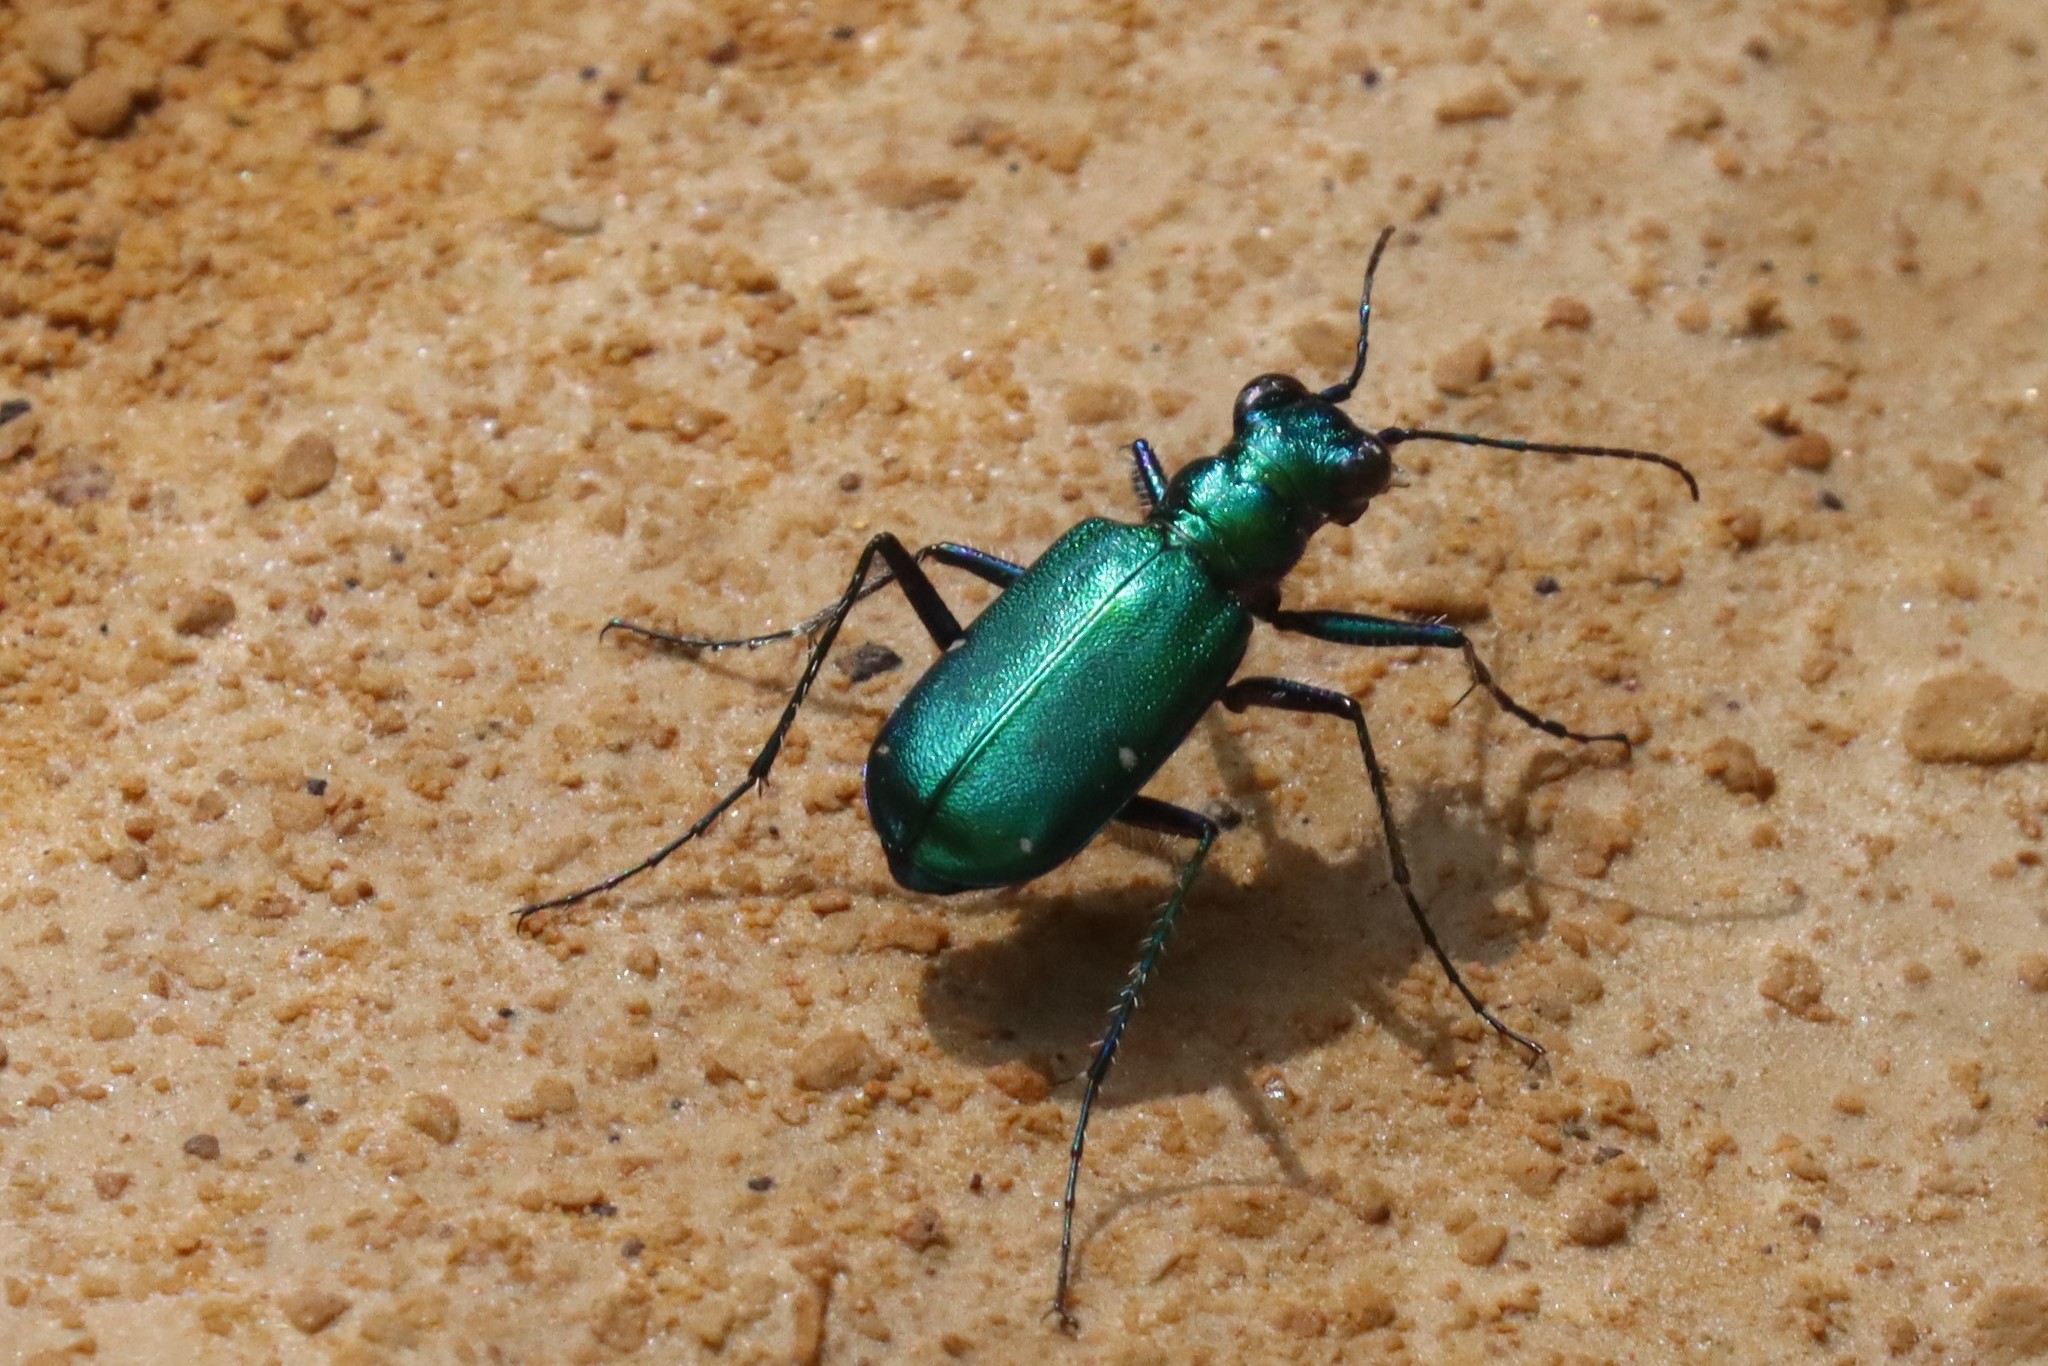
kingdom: Animalia
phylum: Arthropoda
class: Insecta
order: Coleoptera
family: Carabidae
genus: Cicindela
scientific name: Cicindela sexguttata
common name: Six-spotted tiger beetle
